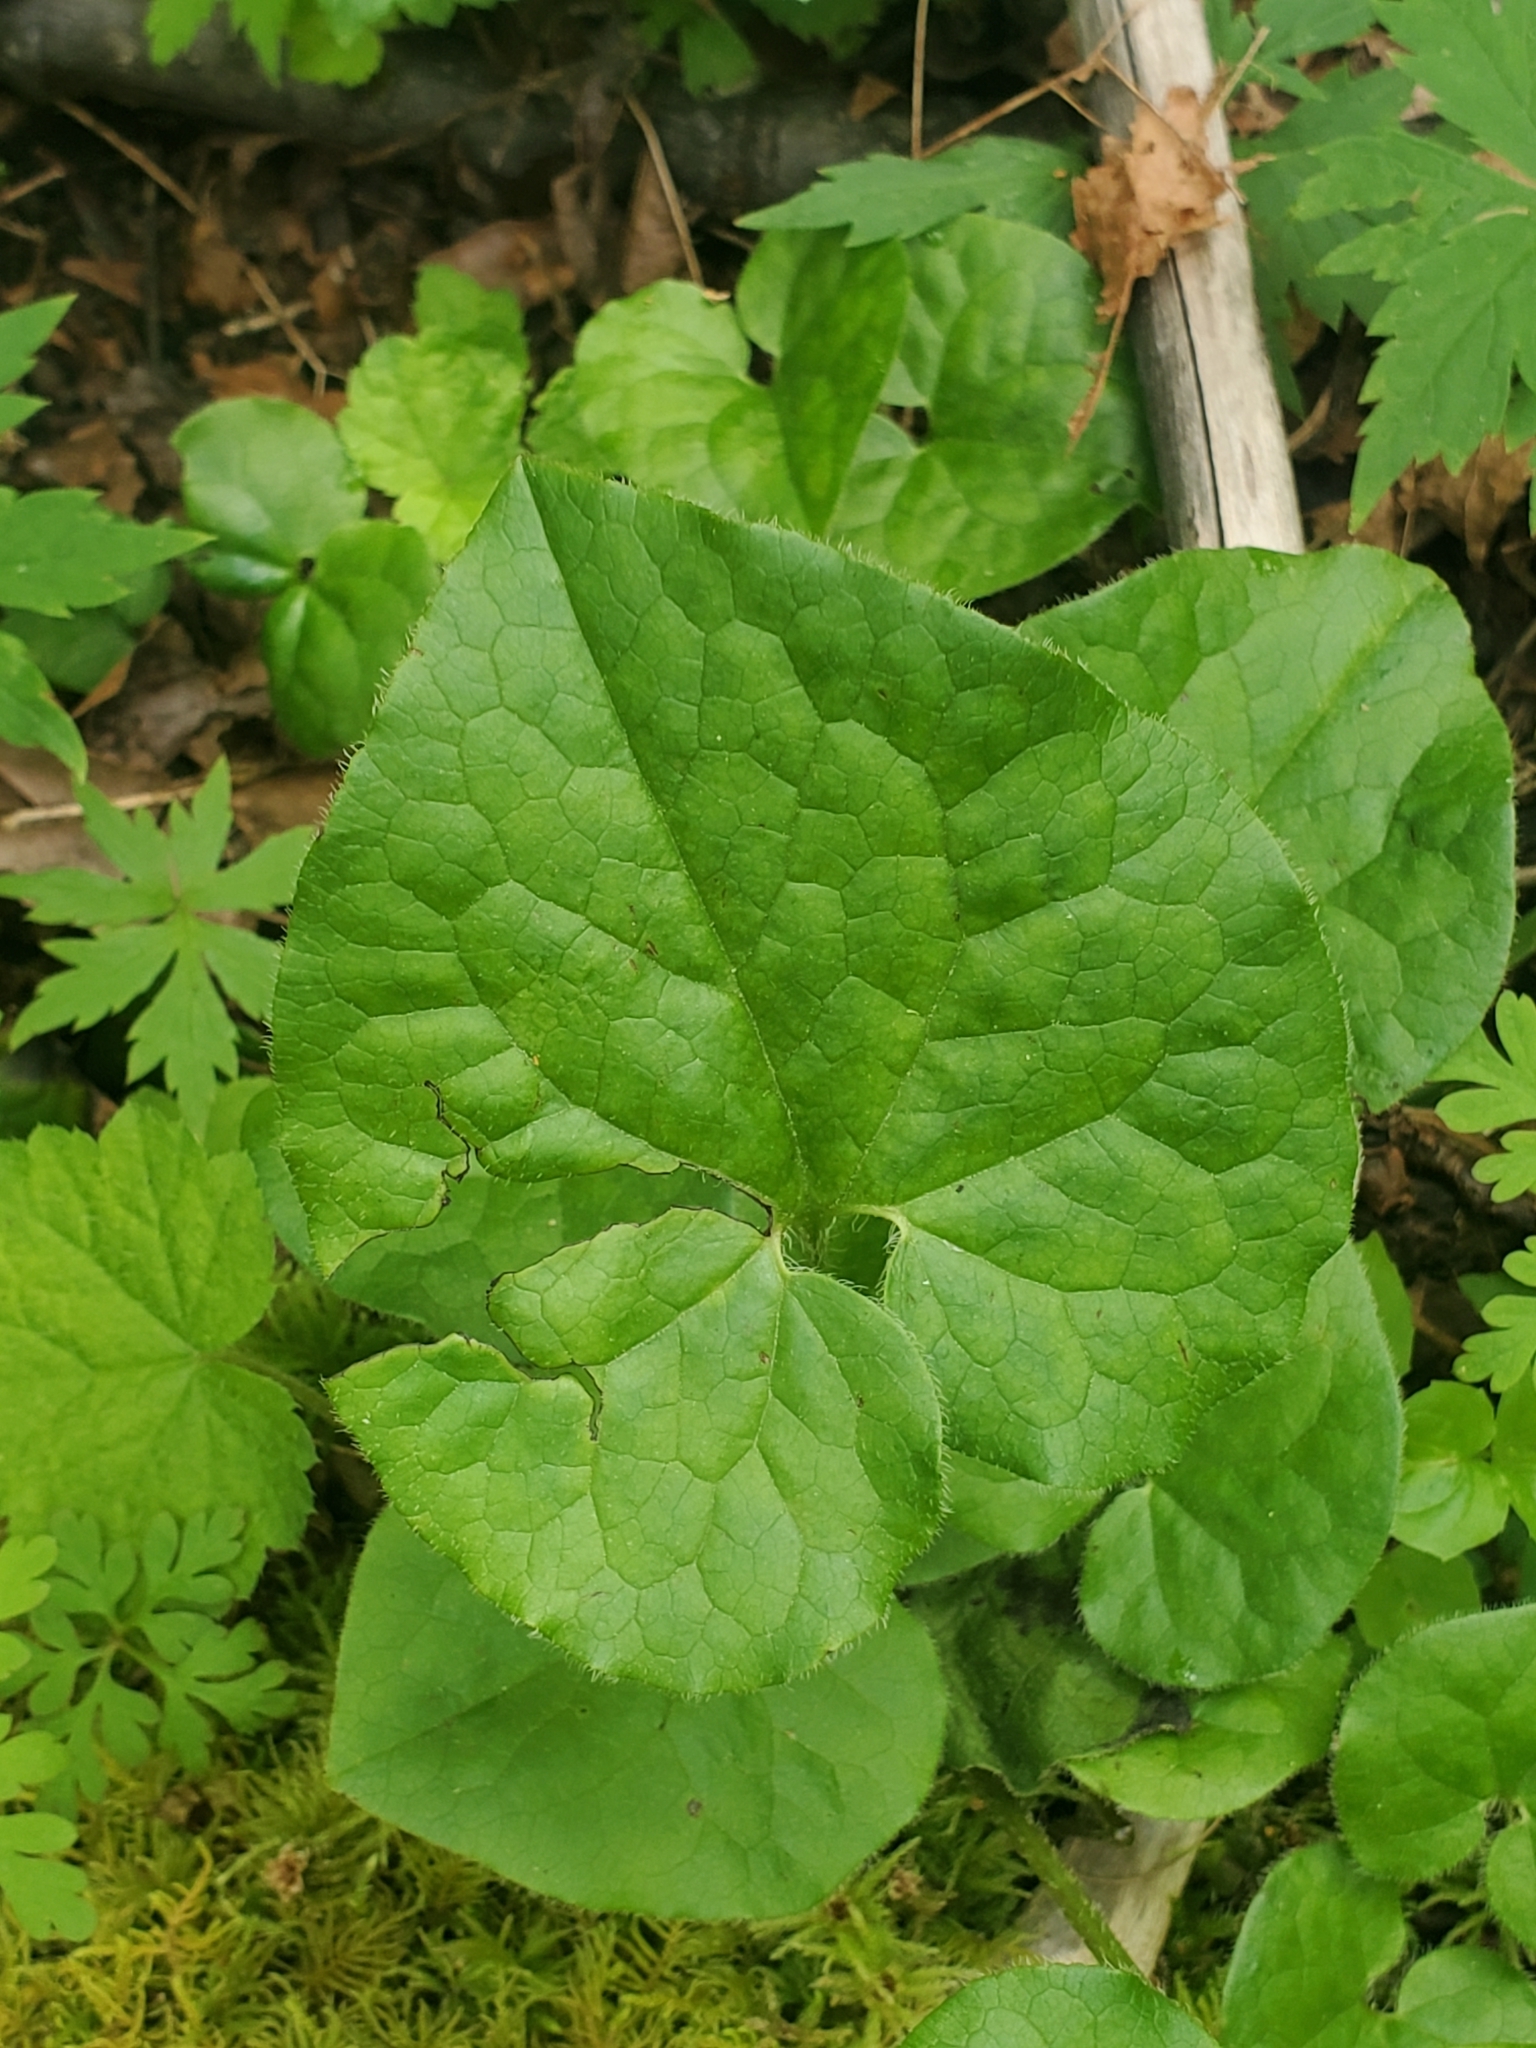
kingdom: Plantae
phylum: Tracheophyta
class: Magnoliopsida
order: Piperales
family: Aristolochiaceae
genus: Asarum
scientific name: Asarum caudatum
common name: Wild ginger
